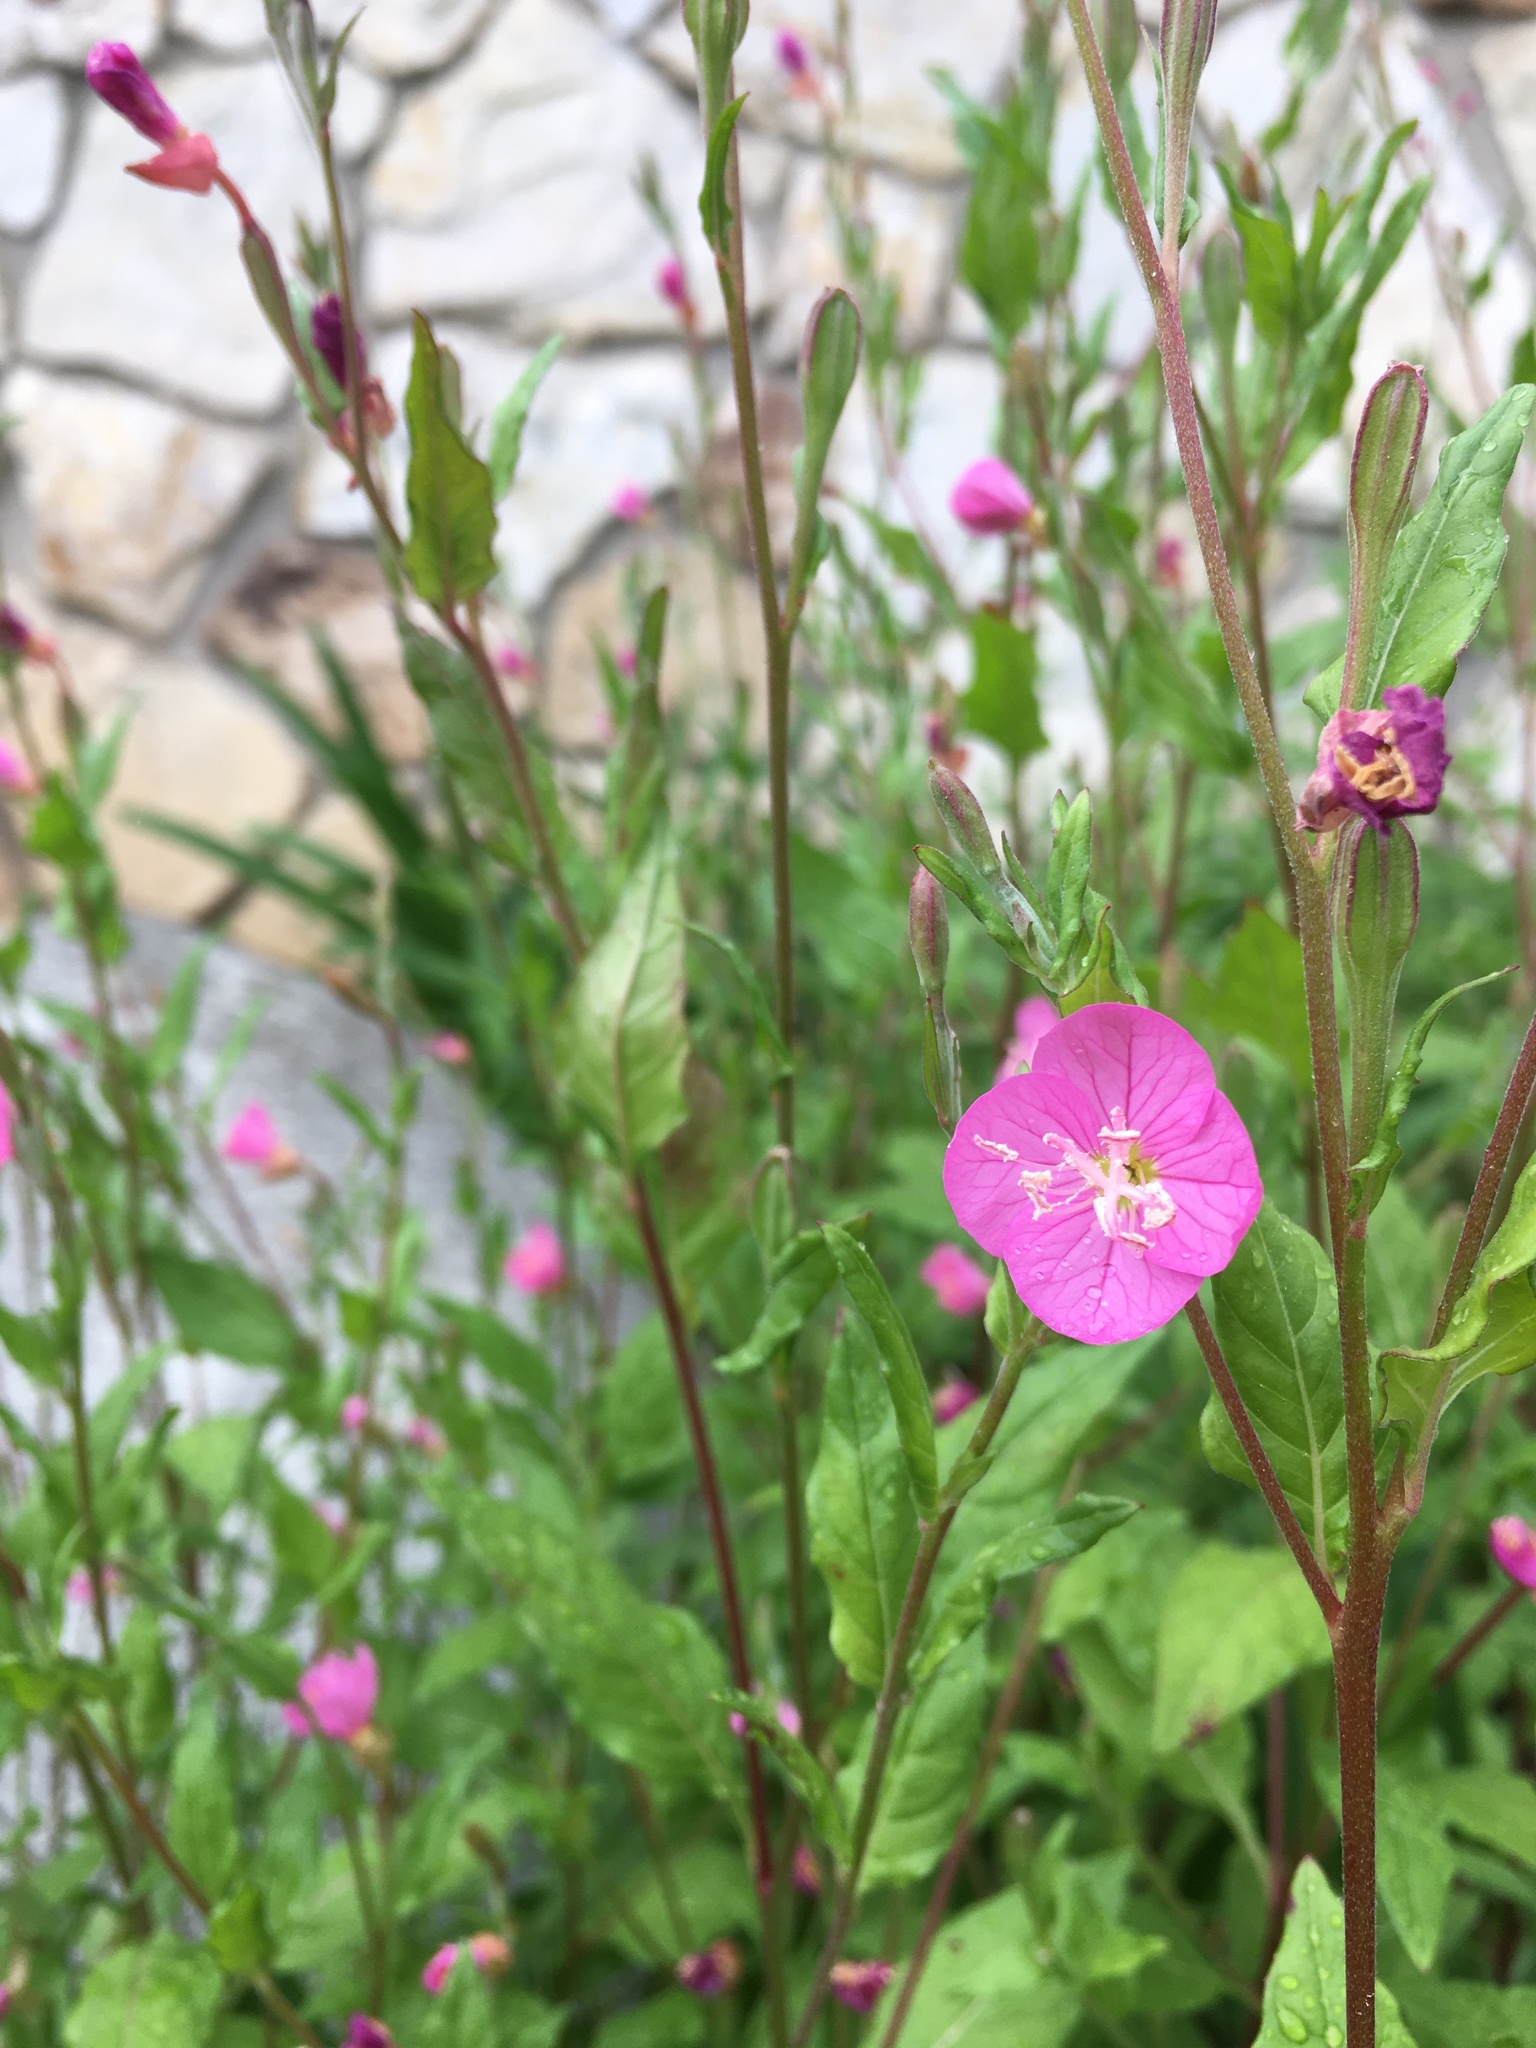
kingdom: Plantae
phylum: Tracheophyta
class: Magnoliopsida
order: Myrtales
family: Onagraceae
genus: Oenothera
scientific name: Oenothera rosea
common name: Rosy evening-primrose
